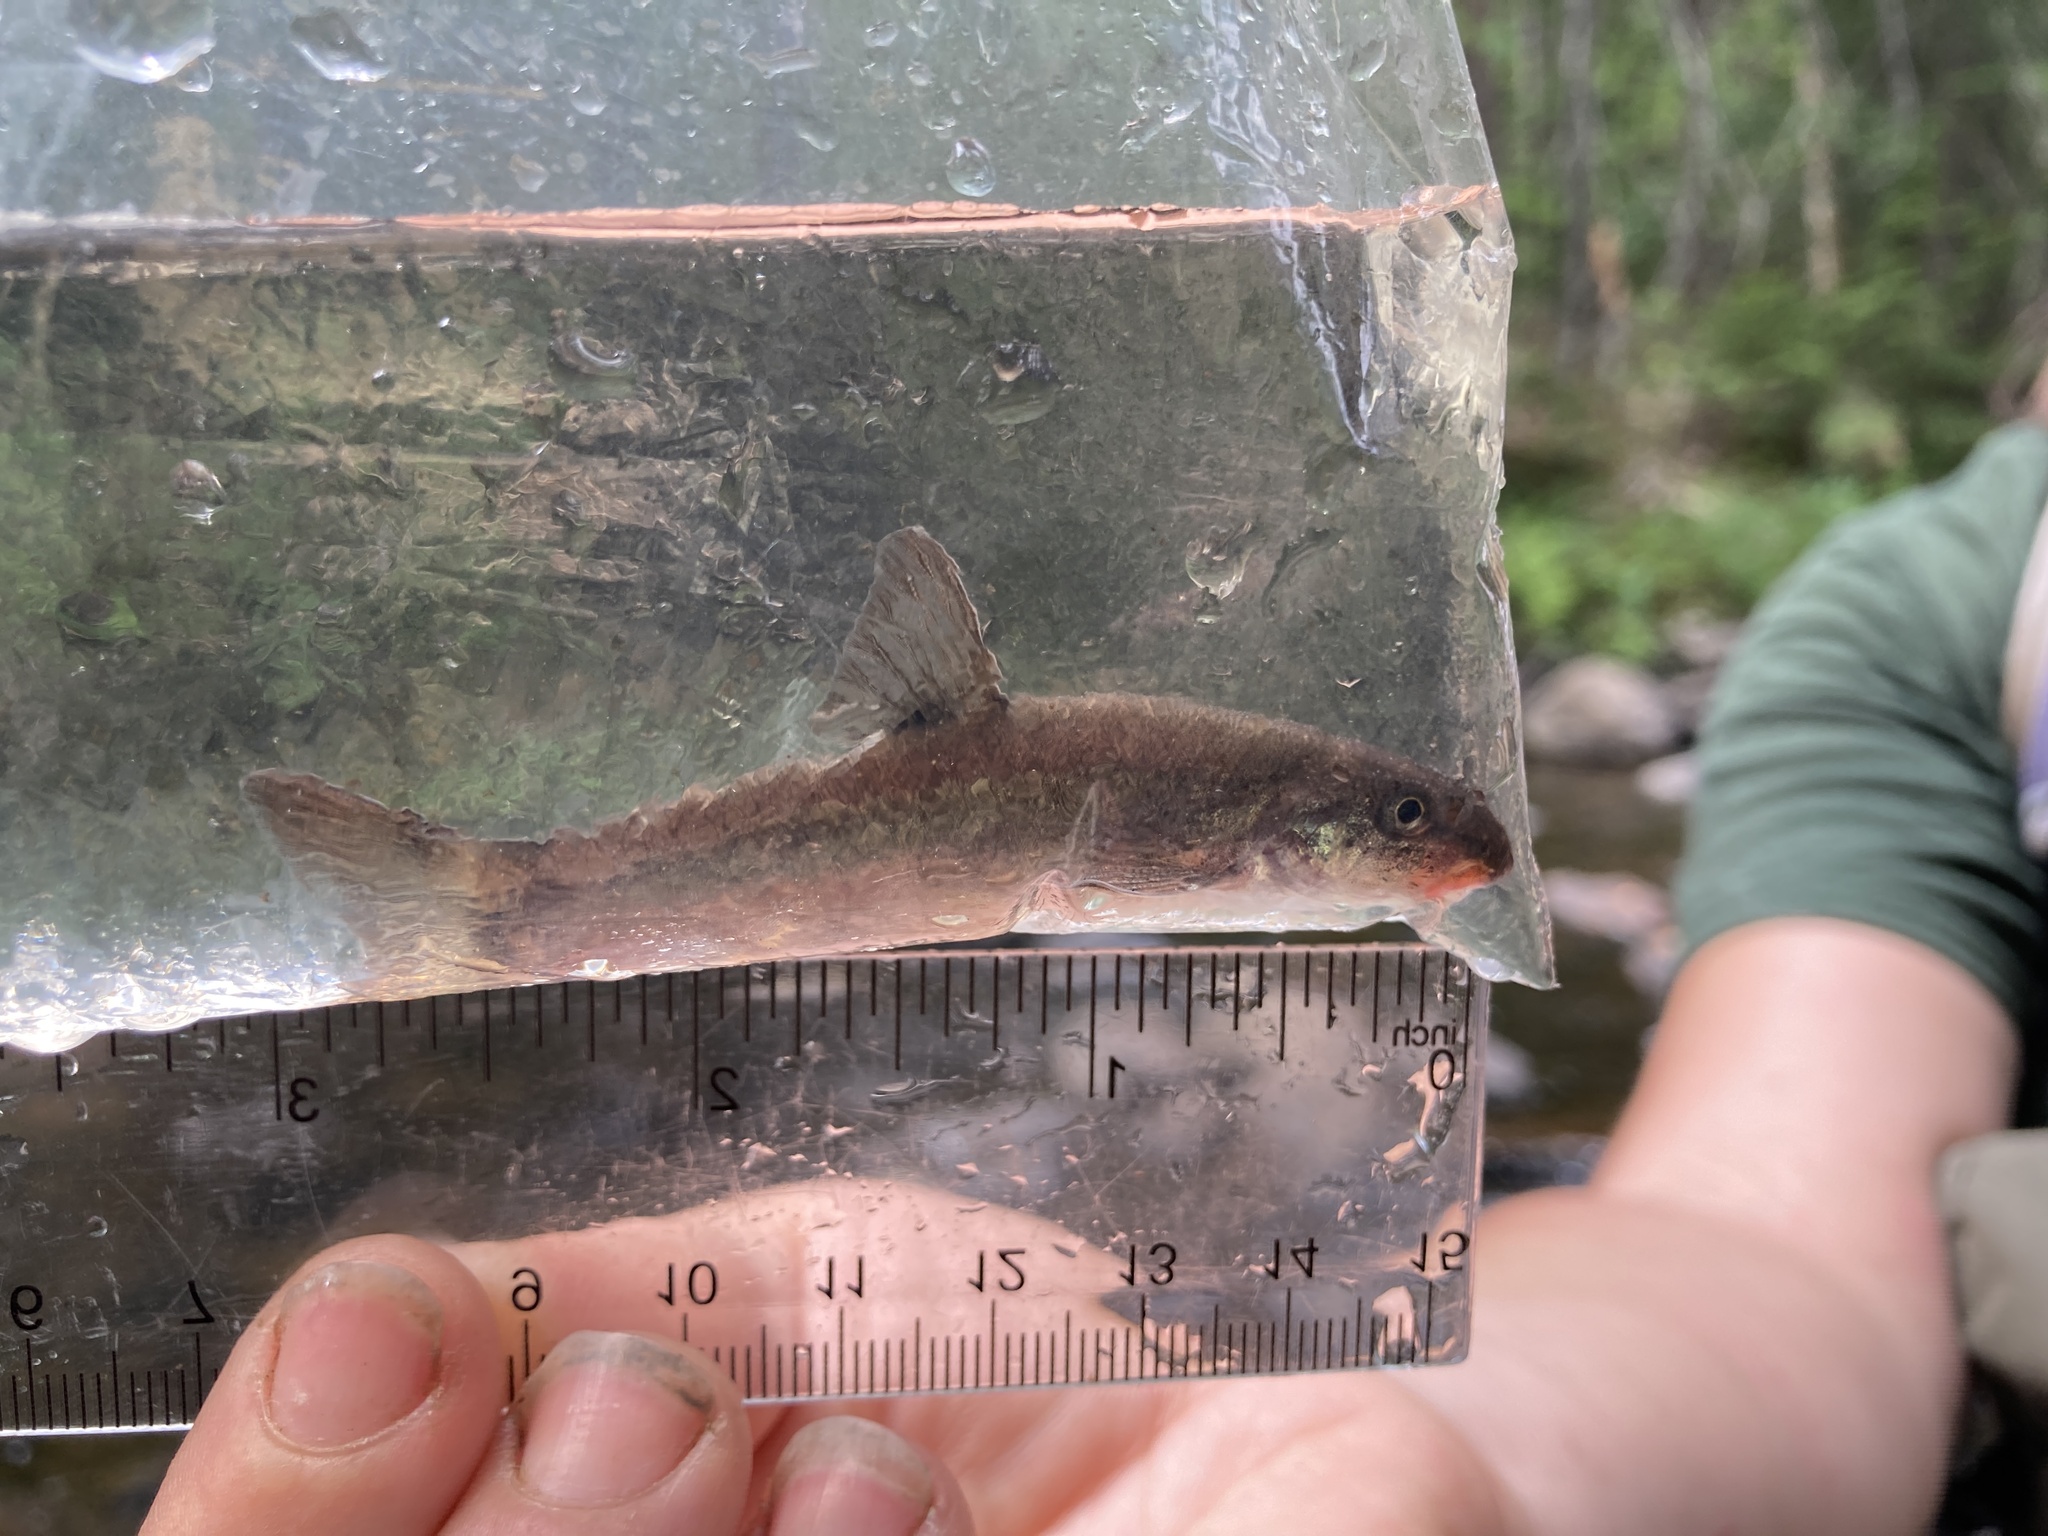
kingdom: Animalia
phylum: Chordata
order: Cypriniformes
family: Cyprinidae
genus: Rhinichthys
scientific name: Rhinichthys cataractae
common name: Longnose dace
